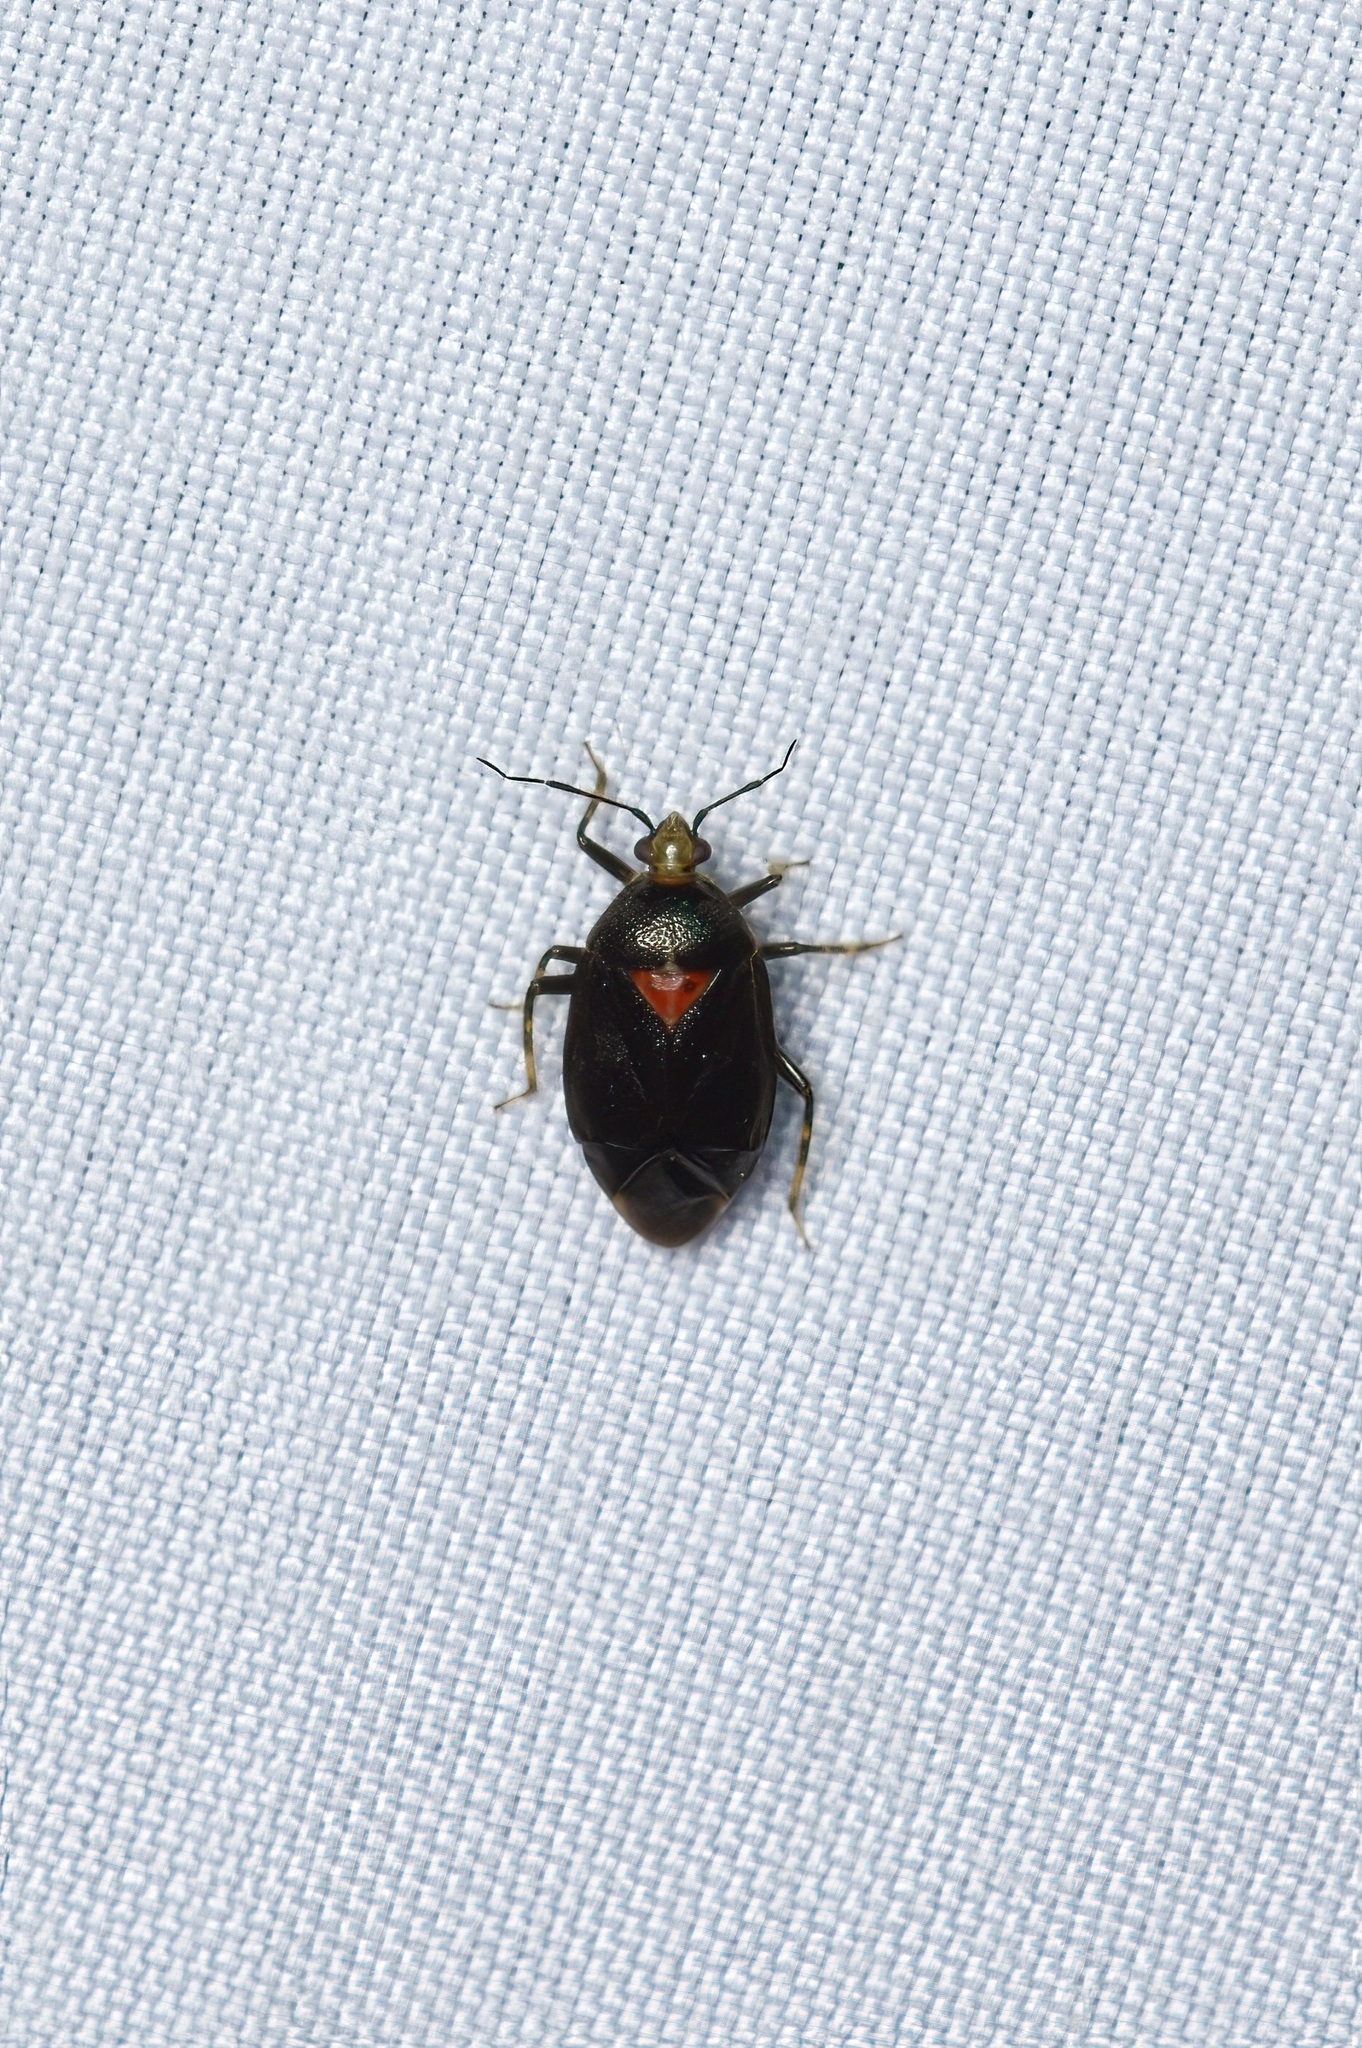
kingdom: Animalia
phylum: Arthropoda
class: Insecta
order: Hemiptera
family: Miridae
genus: Deraeocoris
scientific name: Deraeocoris sayi
